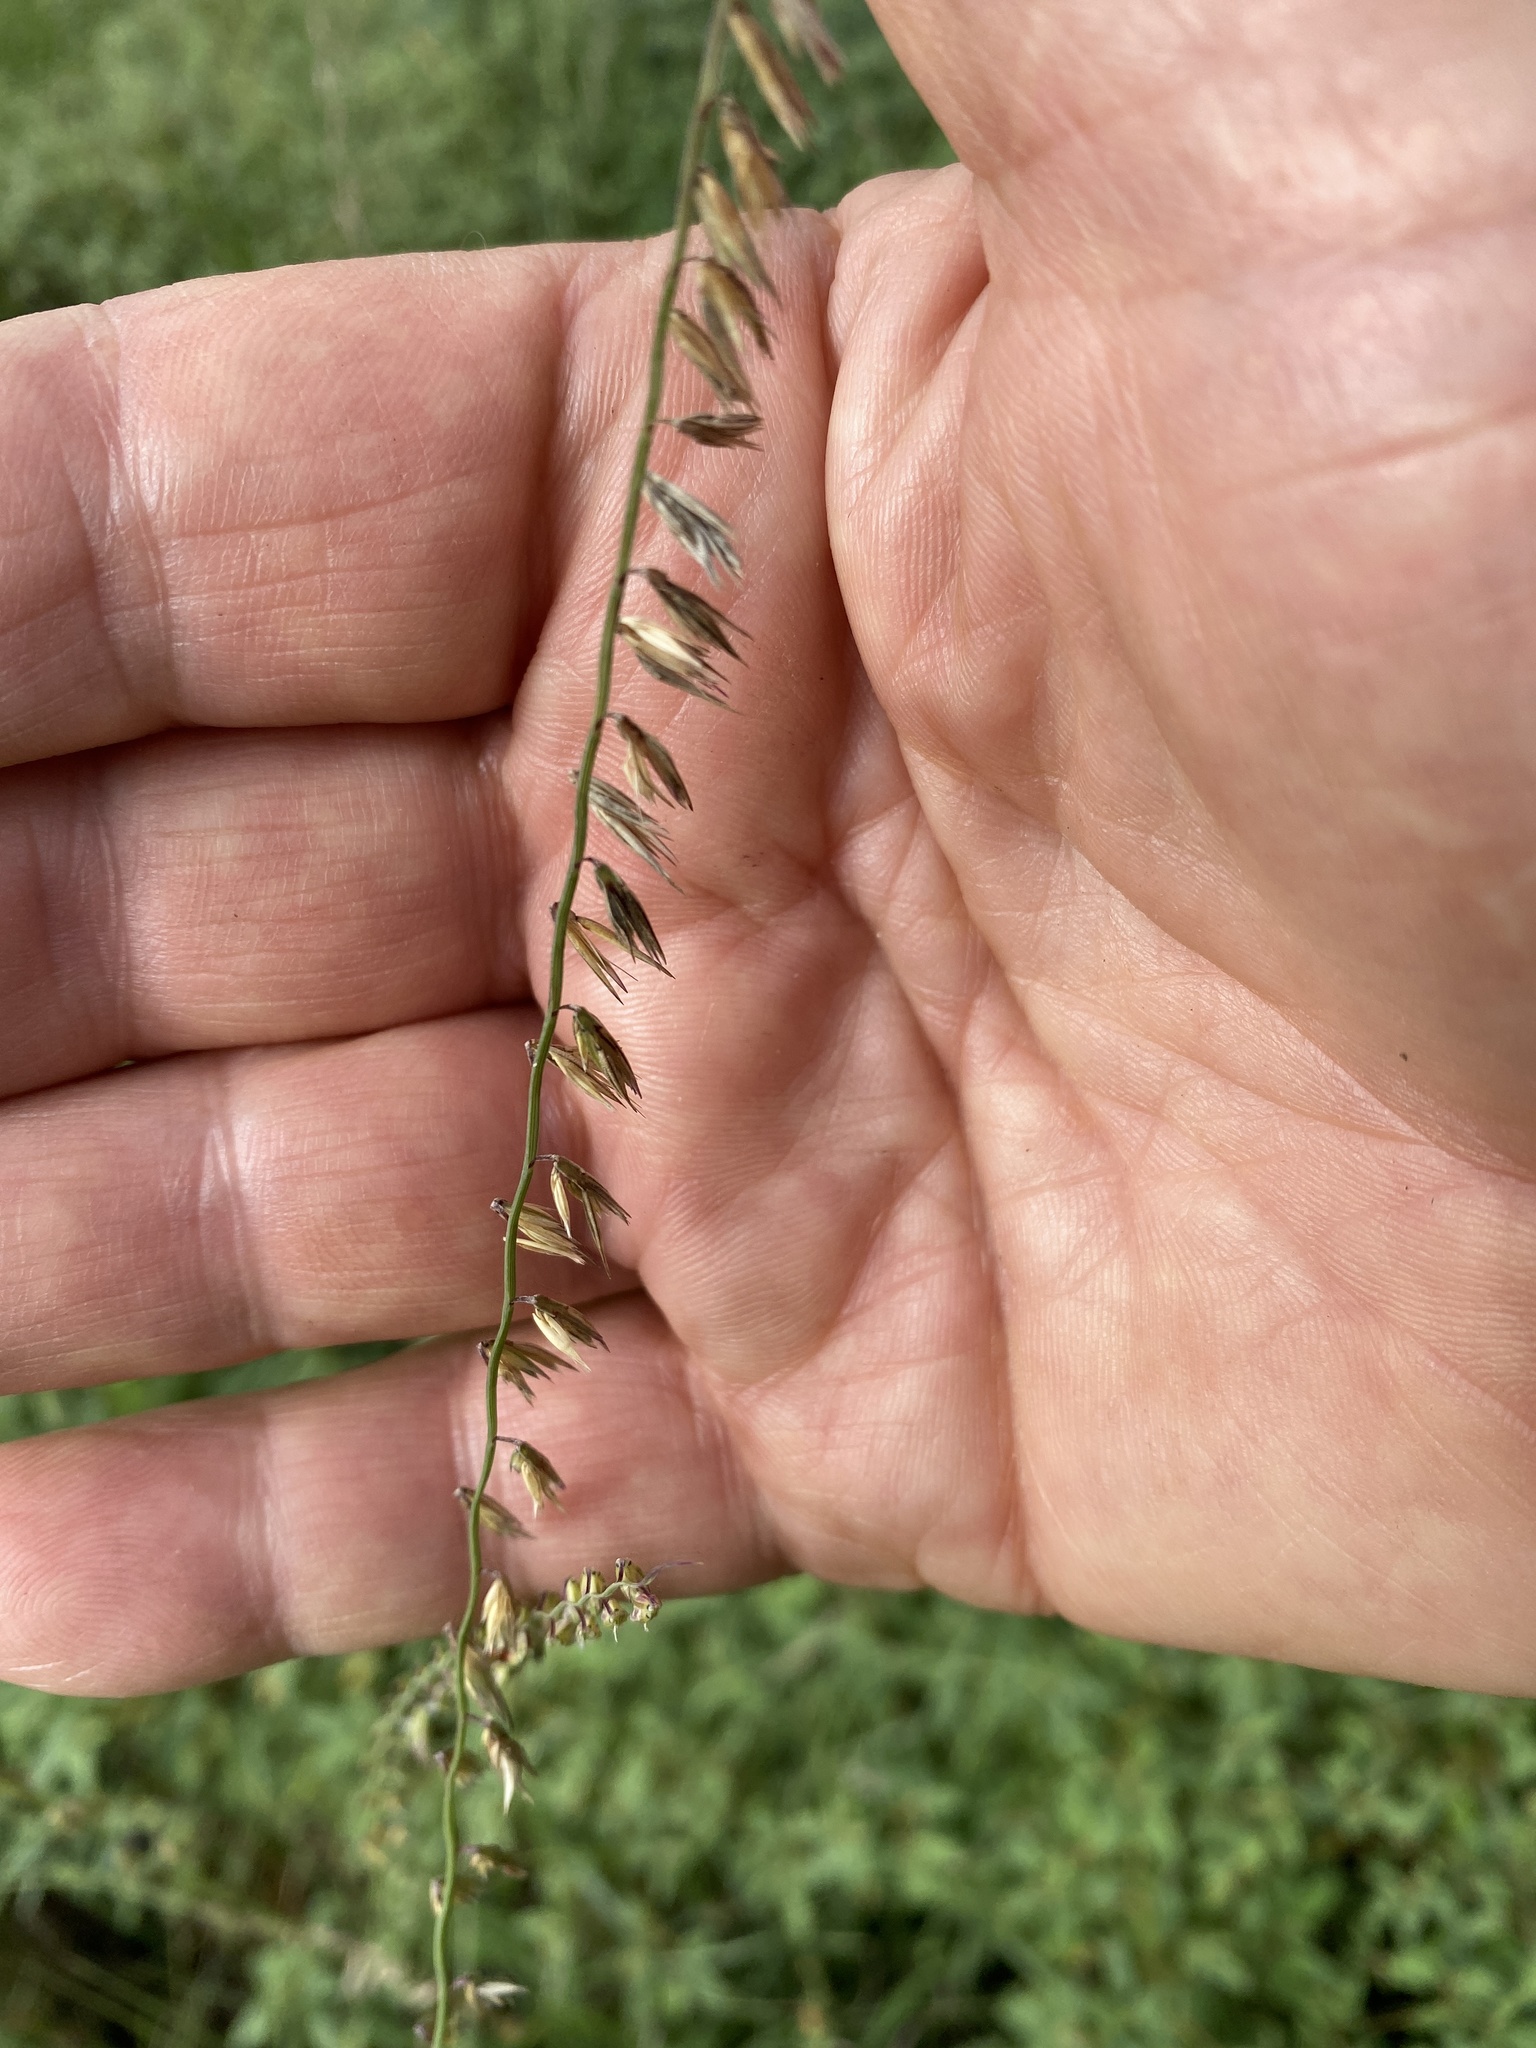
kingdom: Plantae
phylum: Tracheophyta
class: Liliopsida
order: Poales
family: Poaceae
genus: Bouteloua
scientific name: Bouteloua curtipendula
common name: Side-oats grama
